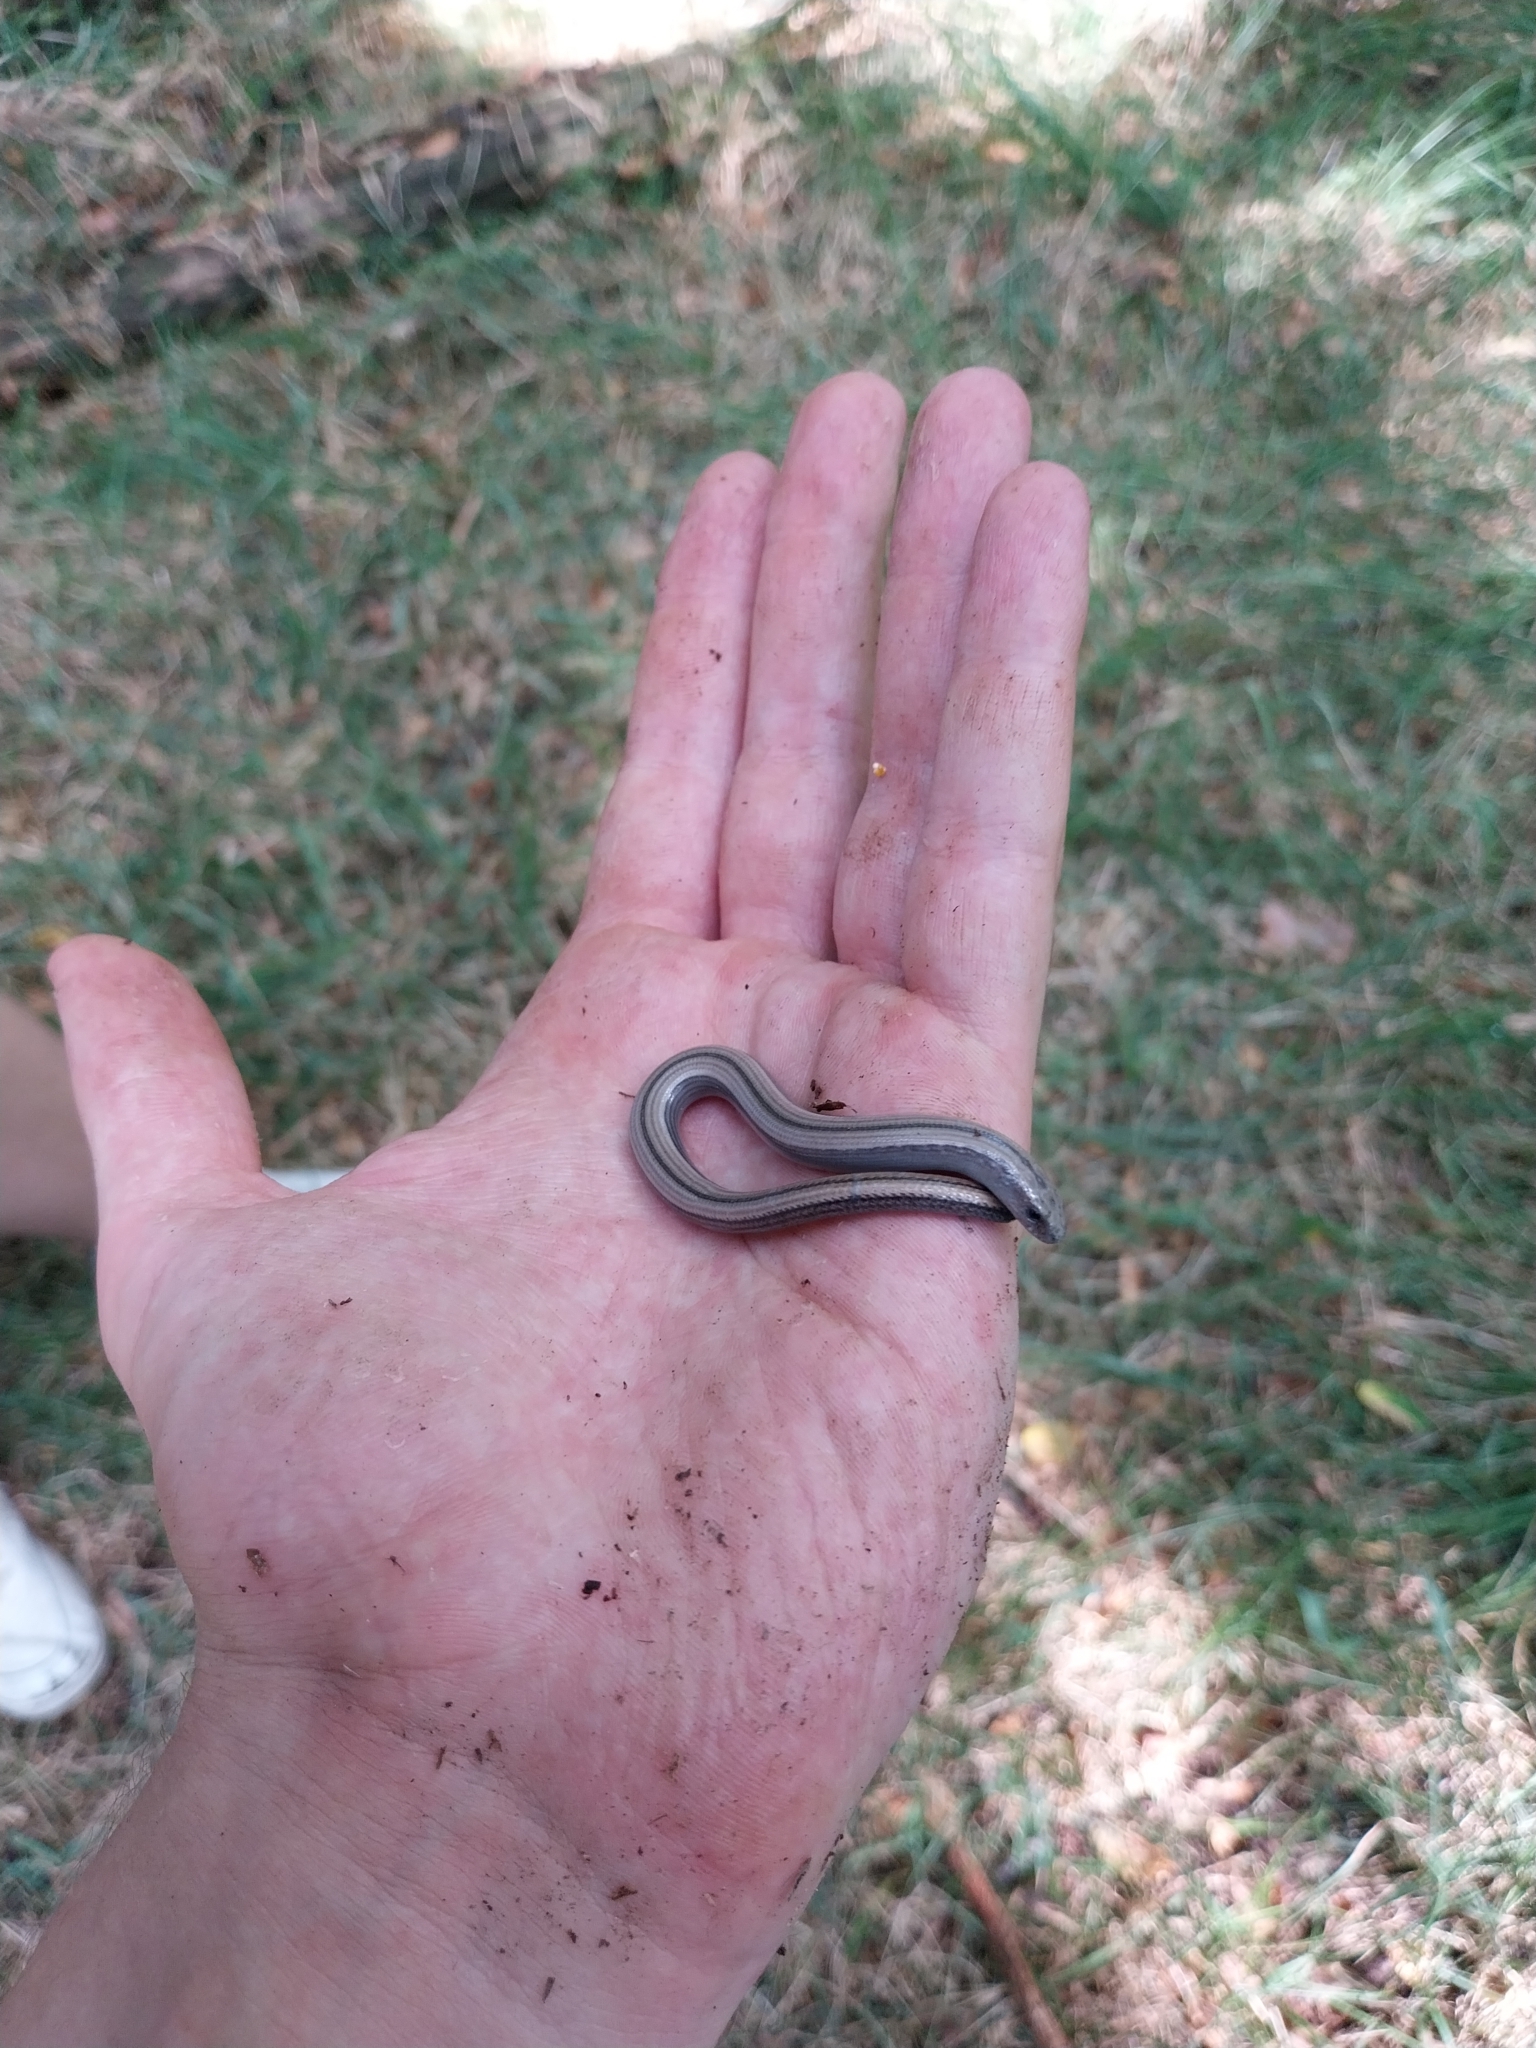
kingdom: Animalia
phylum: Chordata
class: Squamata
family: Anguidae
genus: Anguis
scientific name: Anguis veronensis
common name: Italian slow worm
